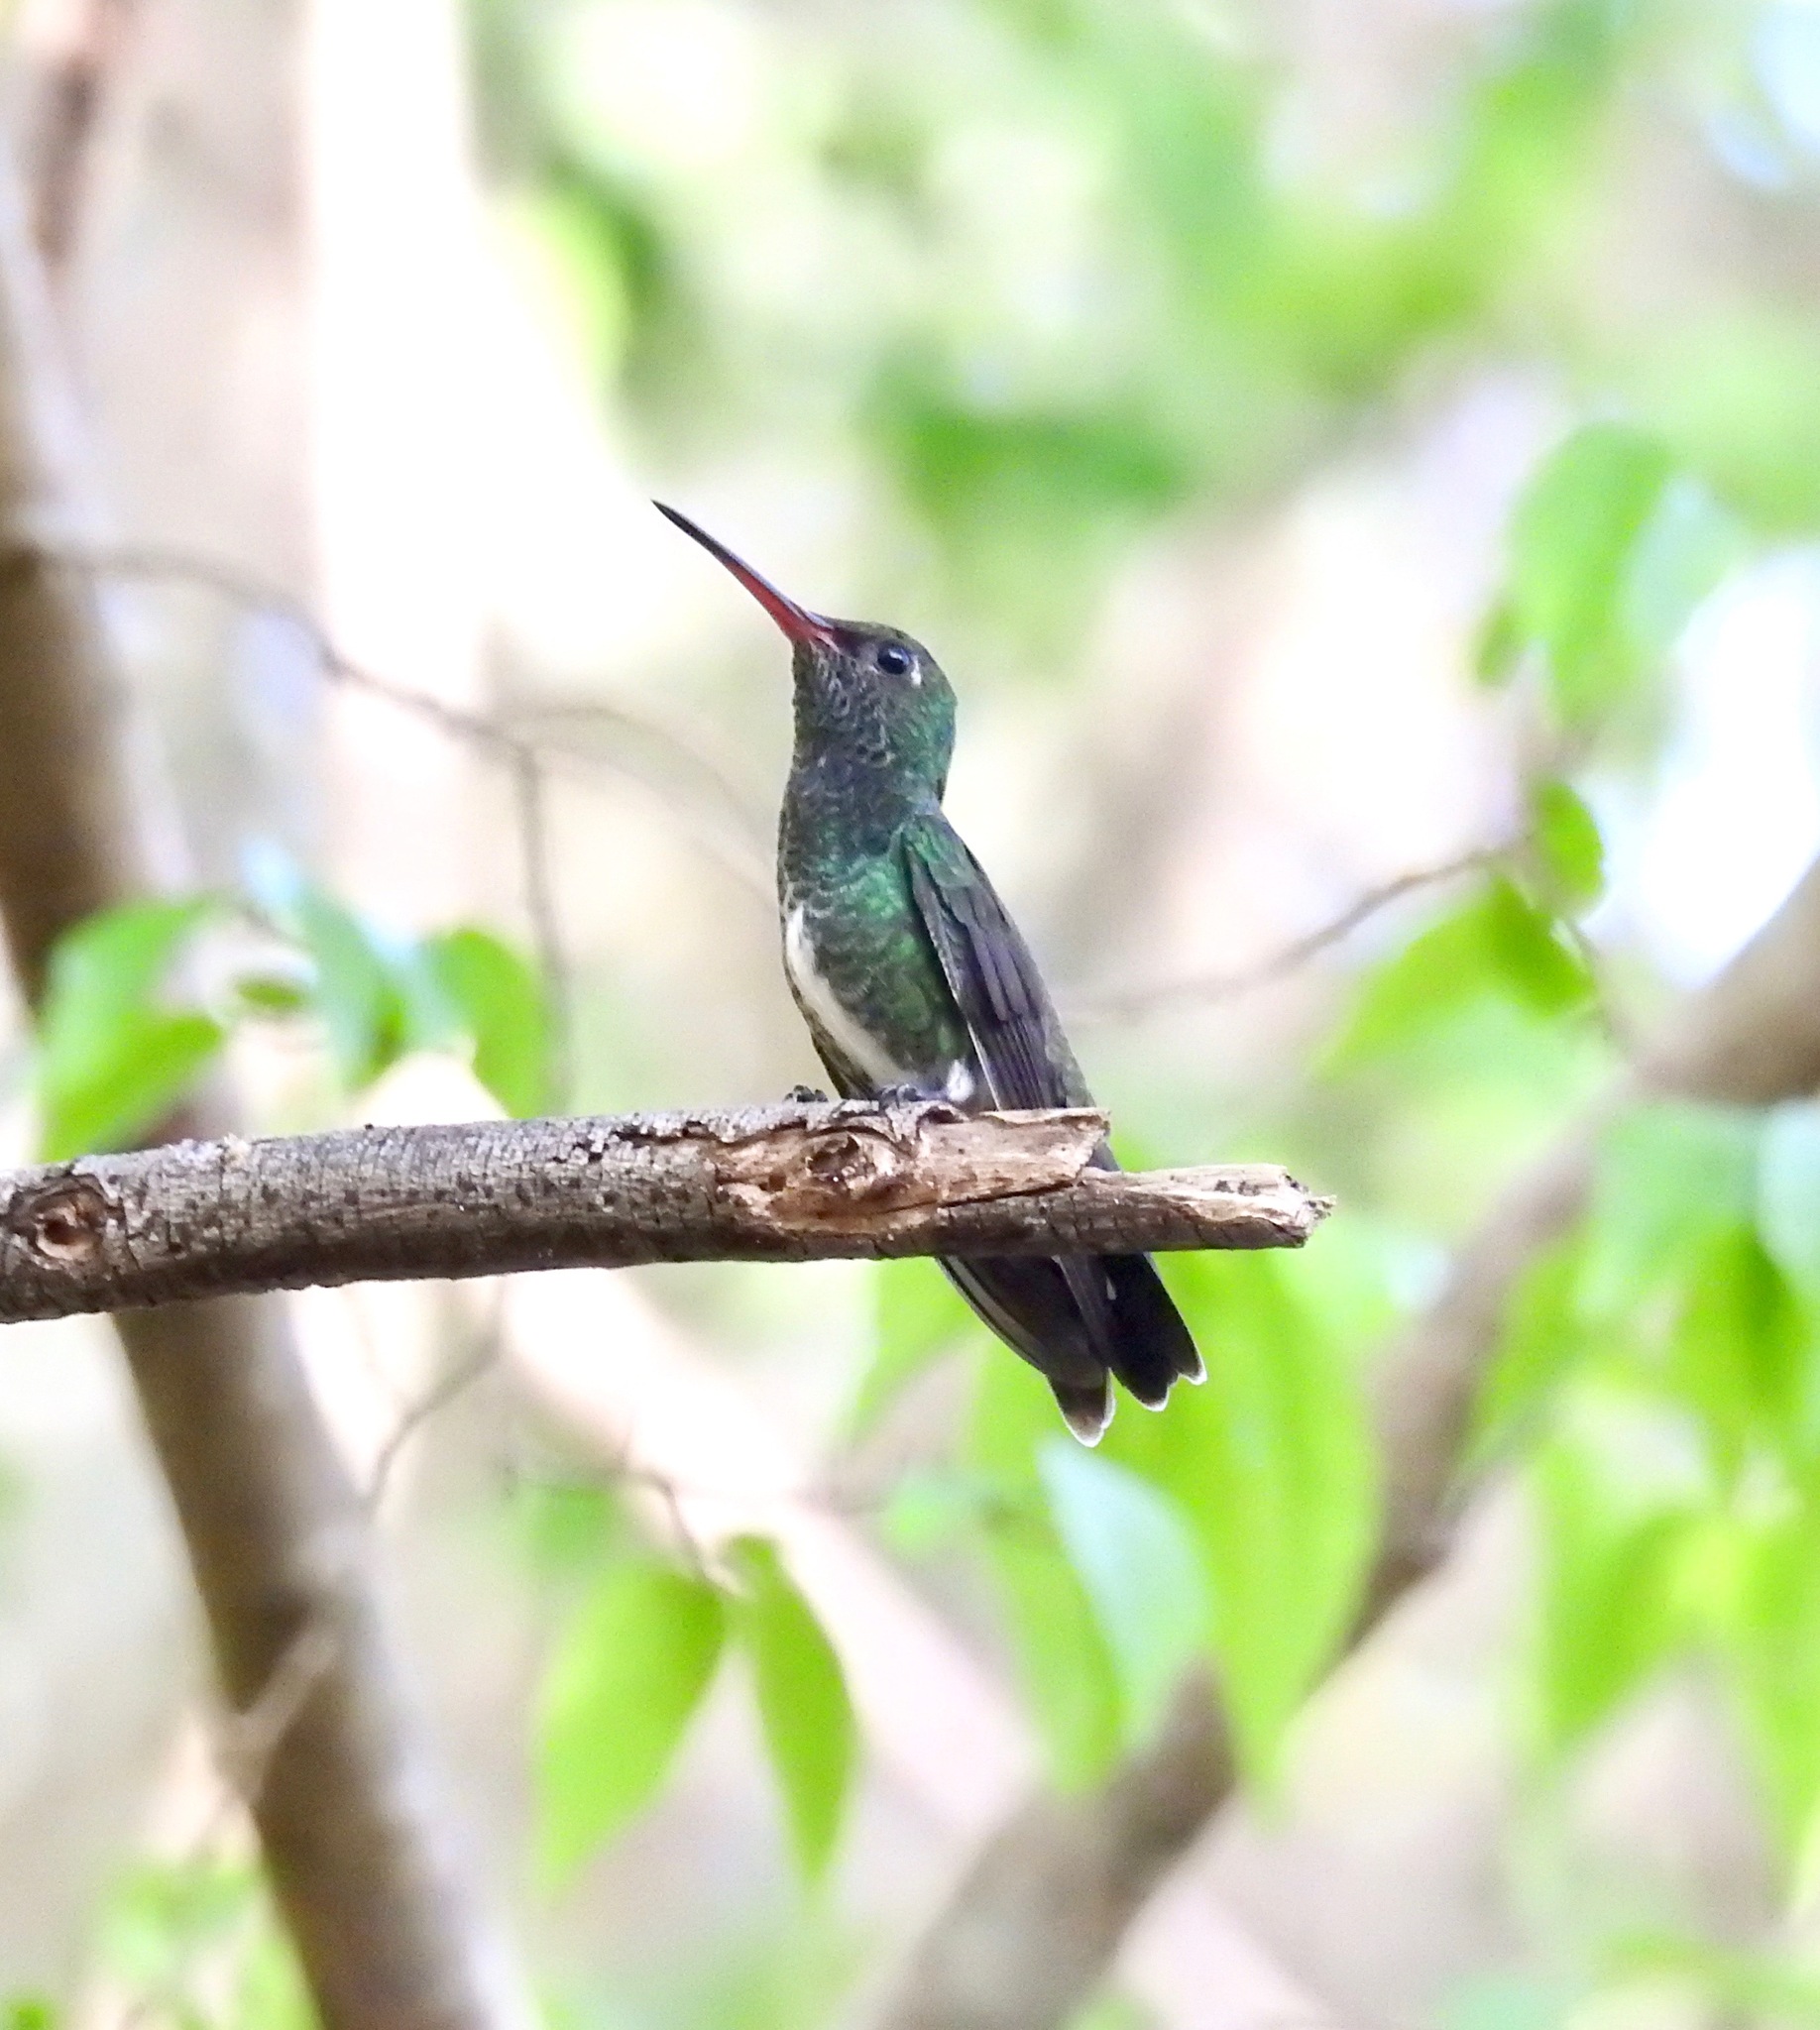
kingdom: Animalia
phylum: Chordata
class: Aves
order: Apodiformes
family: Trochilidae
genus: Chionomesa
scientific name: Chionomesa fimbriata
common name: Glittering-throated emerald
